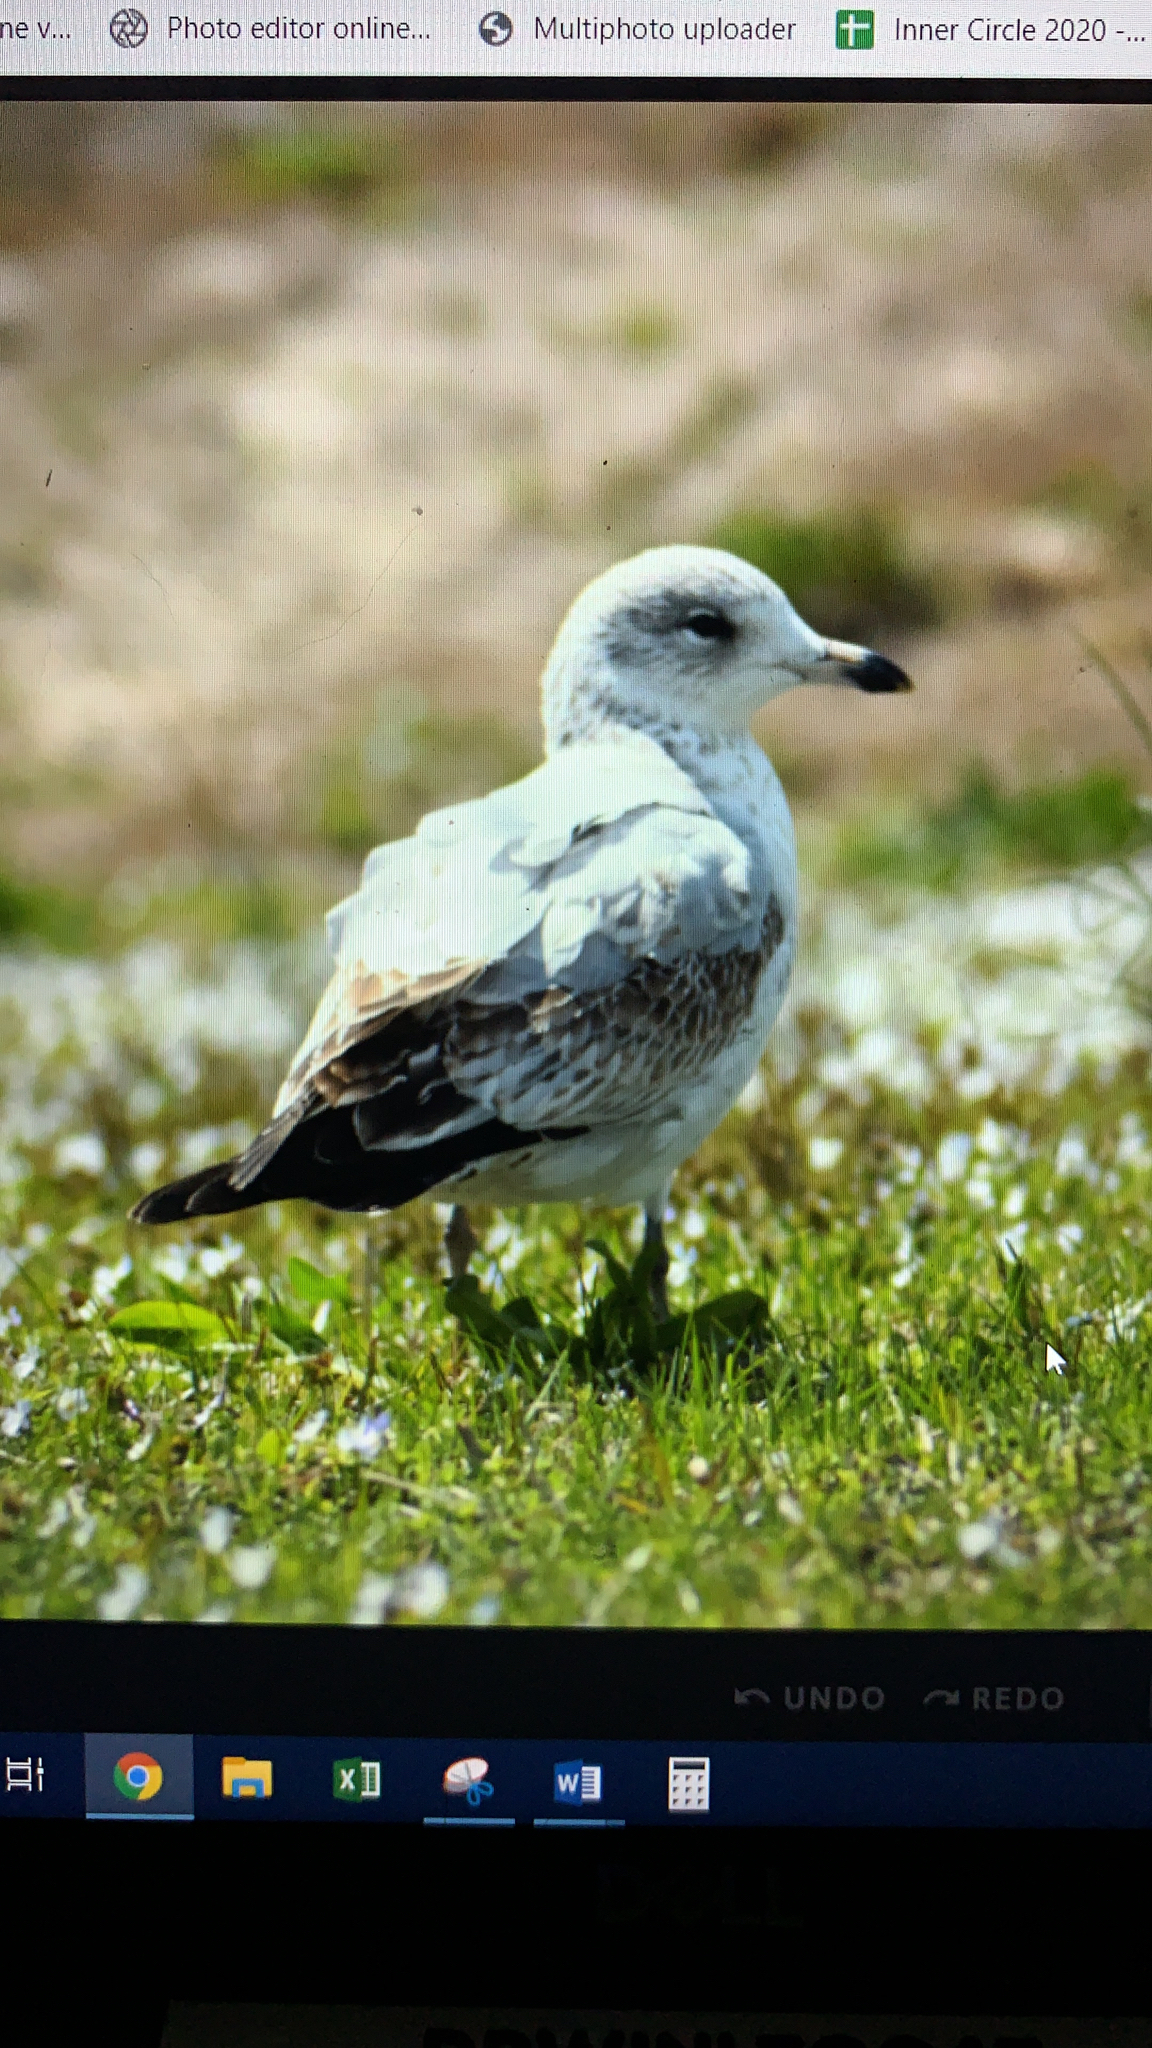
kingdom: Animalia
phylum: Chordata
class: Aves
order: Charadriiformes
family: Laridae
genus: Larus
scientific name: Larus delawarensis
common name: Ring-billed gull
